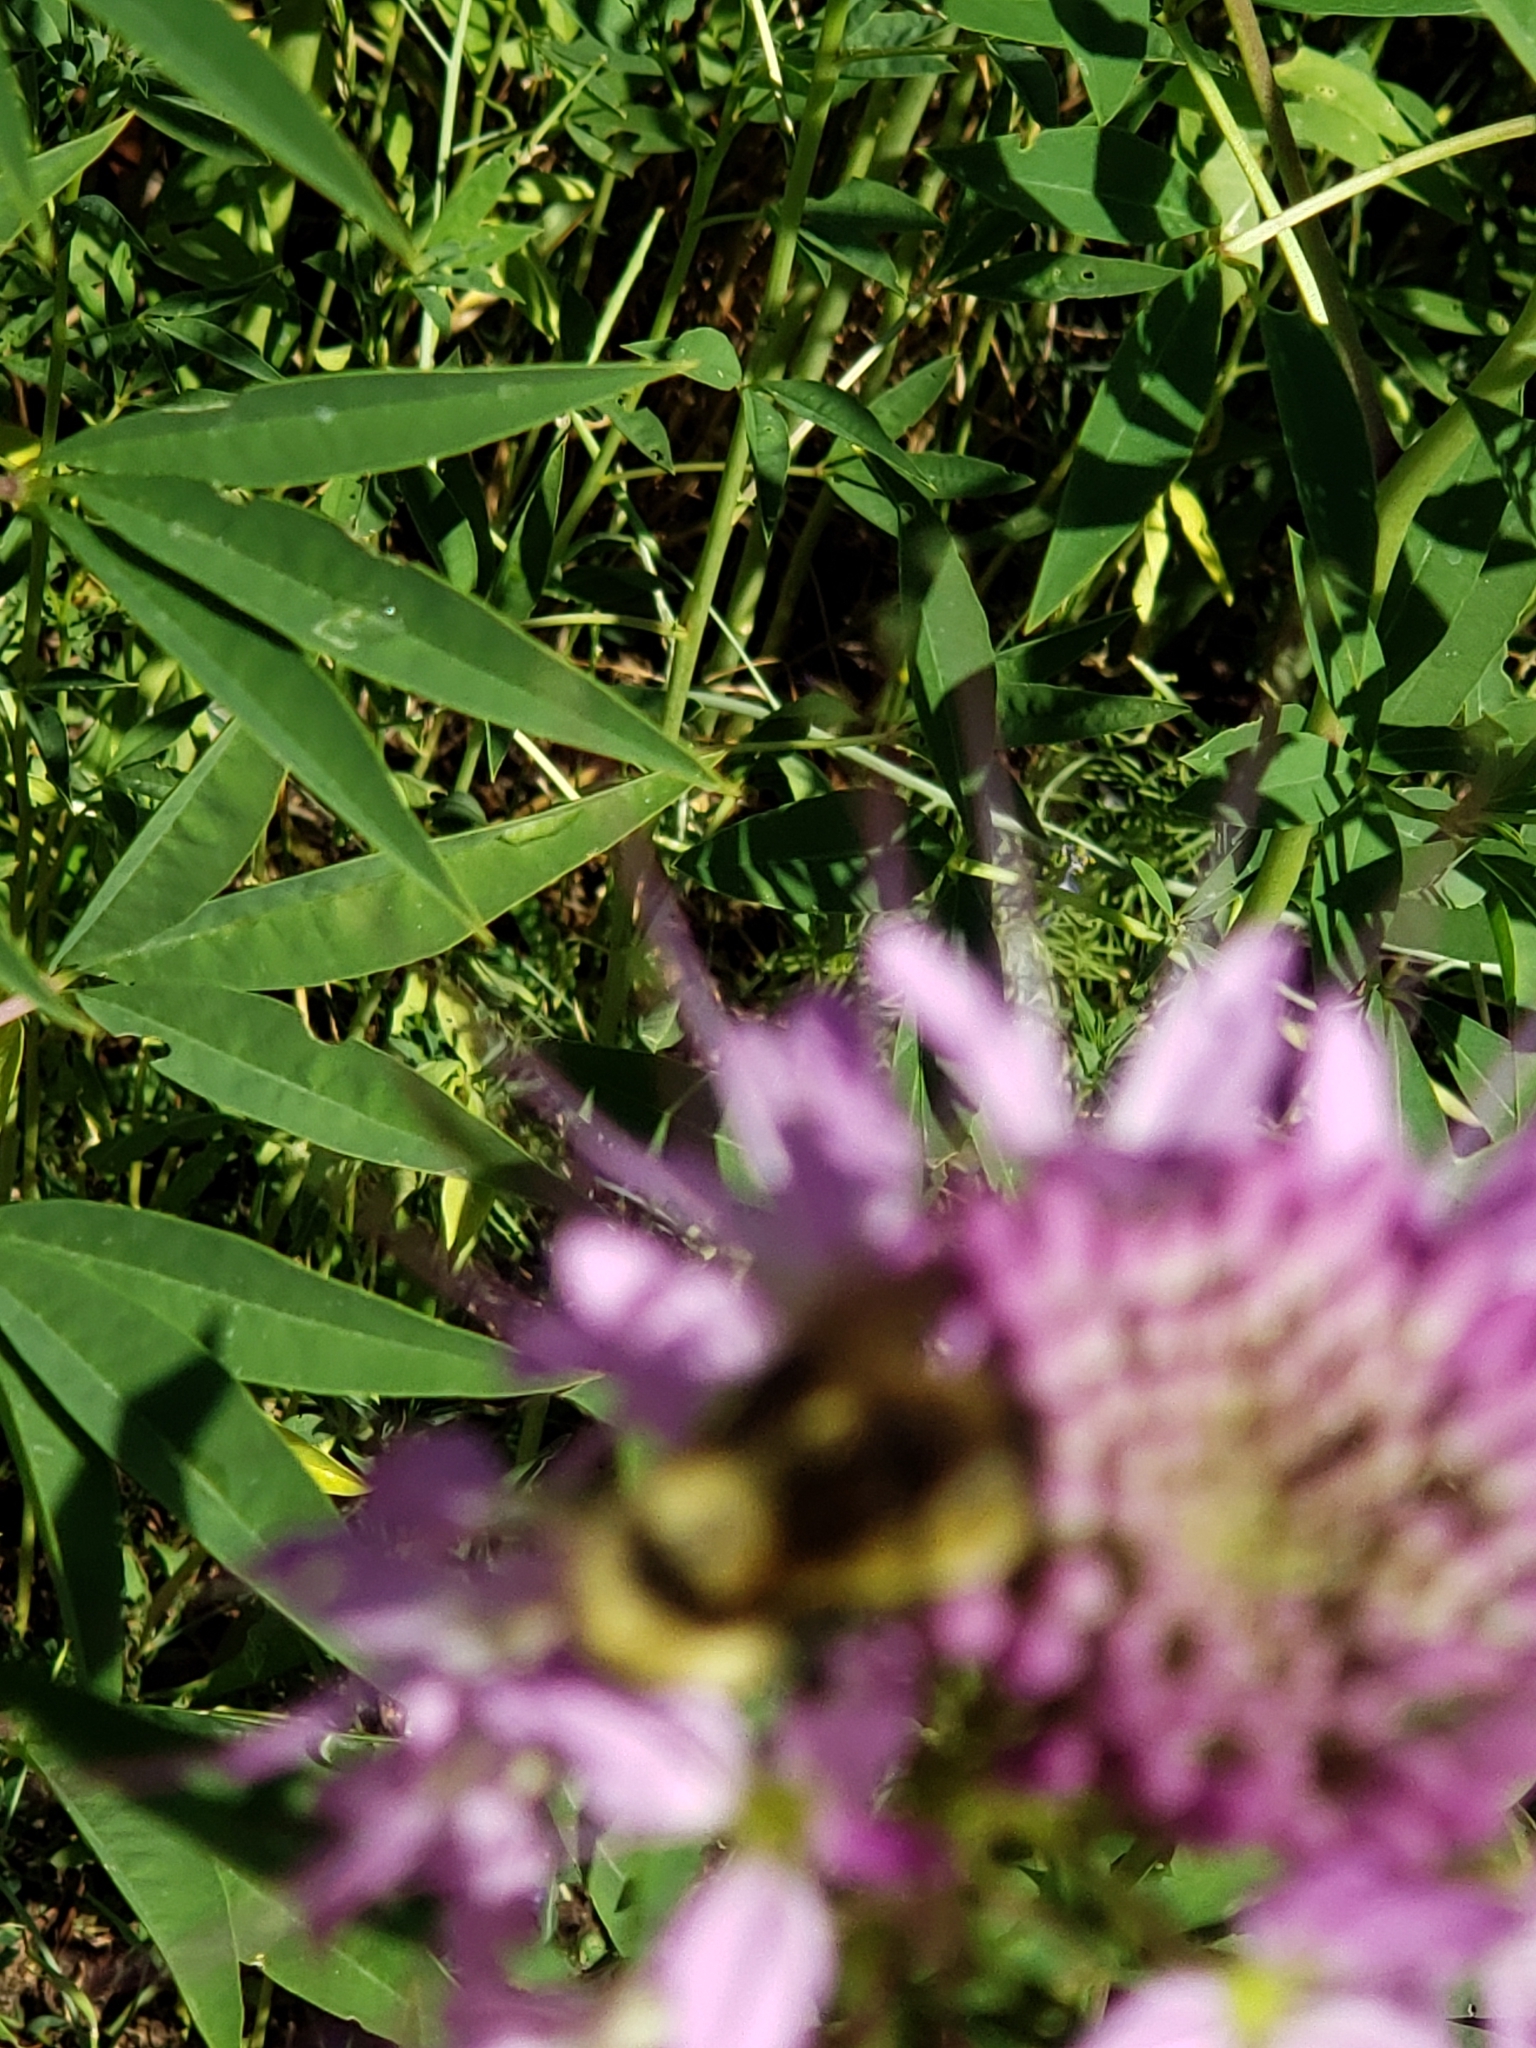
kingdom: Plantae
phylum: Tracheophyta
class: Magnoliopsida
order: Brassicales
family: Cleomaceae
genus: Cleomella
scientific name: Cleomella serrulata
